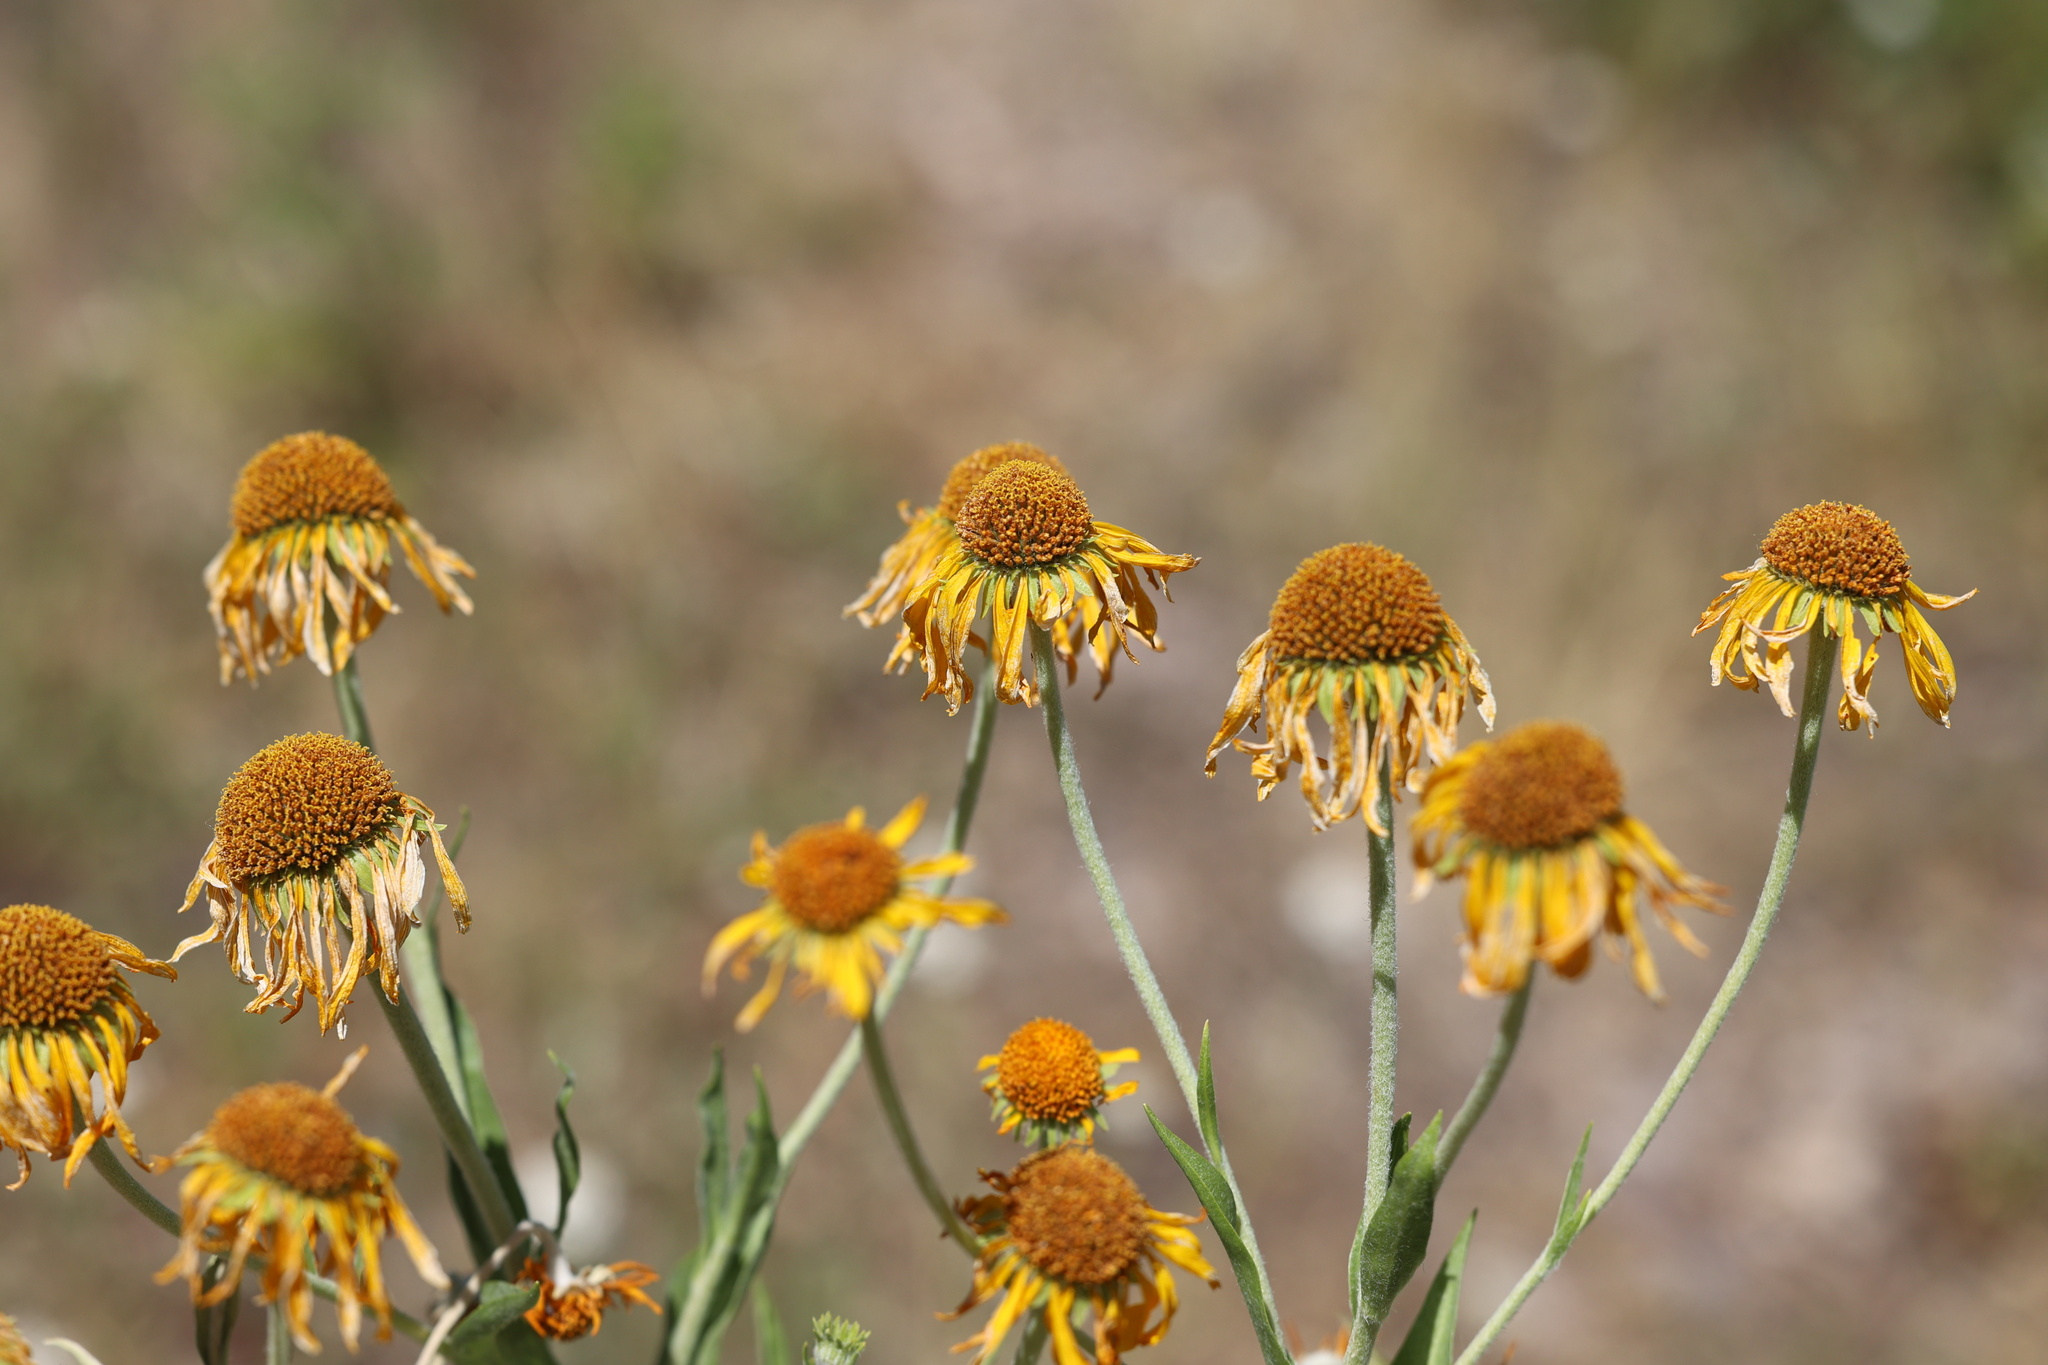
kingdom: Plantae
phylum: Tracheophyta
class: Magnoliopsida
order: Asterales
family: Asteraceae
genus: Hymenoxys
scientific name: Hymenoxys hoopesii
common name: Orange-sneezeweed
